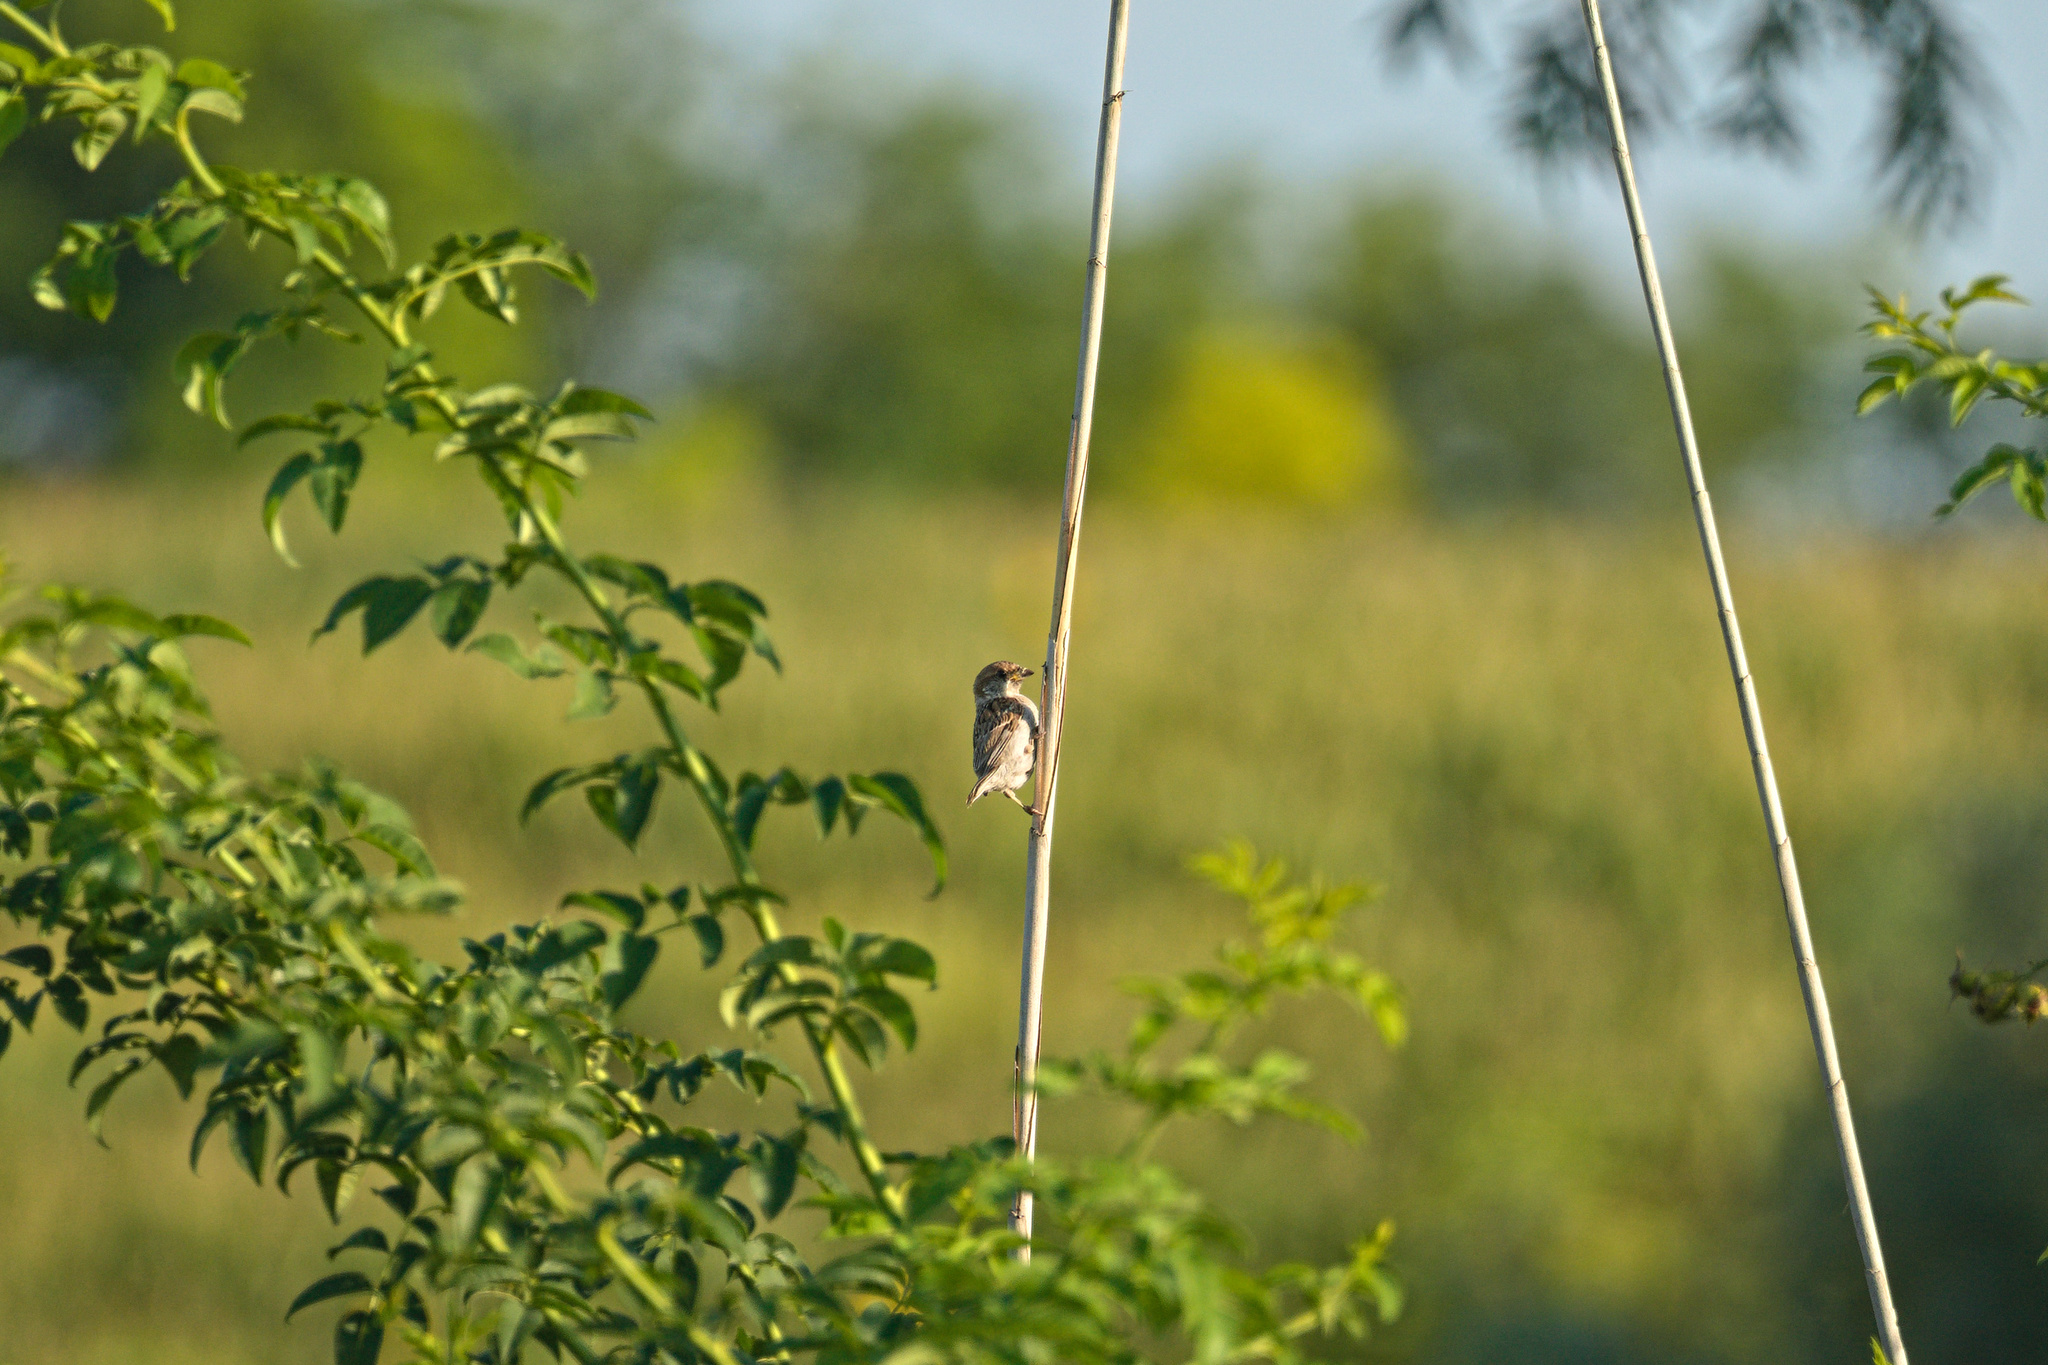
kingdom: Animalia
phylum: Chordata
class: Aves
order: Passeriformes
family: Passeridae
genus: Passer
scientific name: Passer montanus
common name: Eurasian tree sparrow
